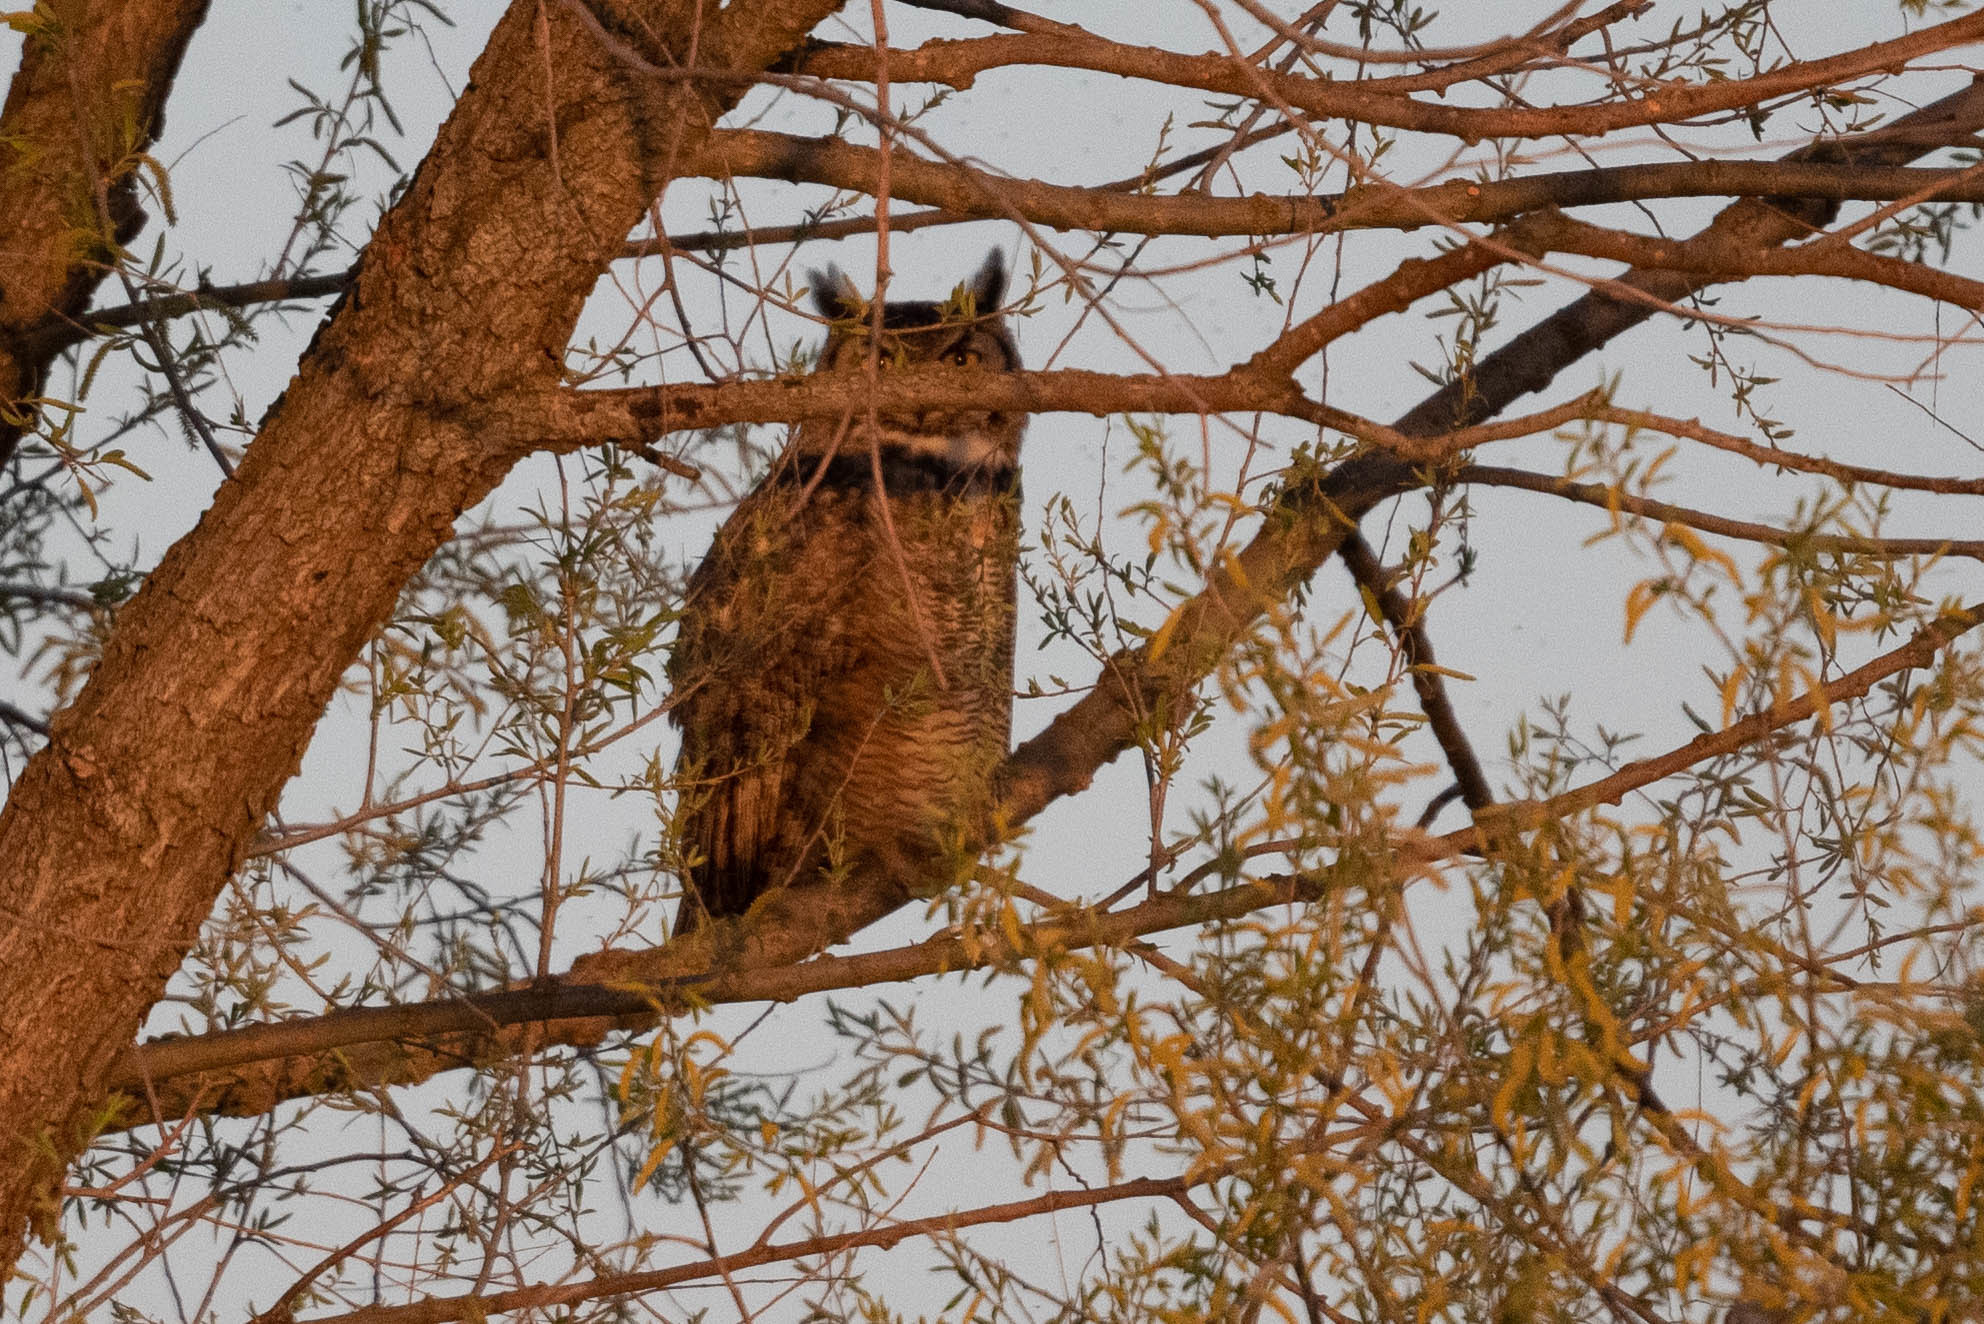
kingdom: Animalia
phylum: Chordata
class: Aves
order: Strigiformes
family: Strigidae
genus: Bubo
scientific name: Bubo virginianus
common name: Great horned owl
